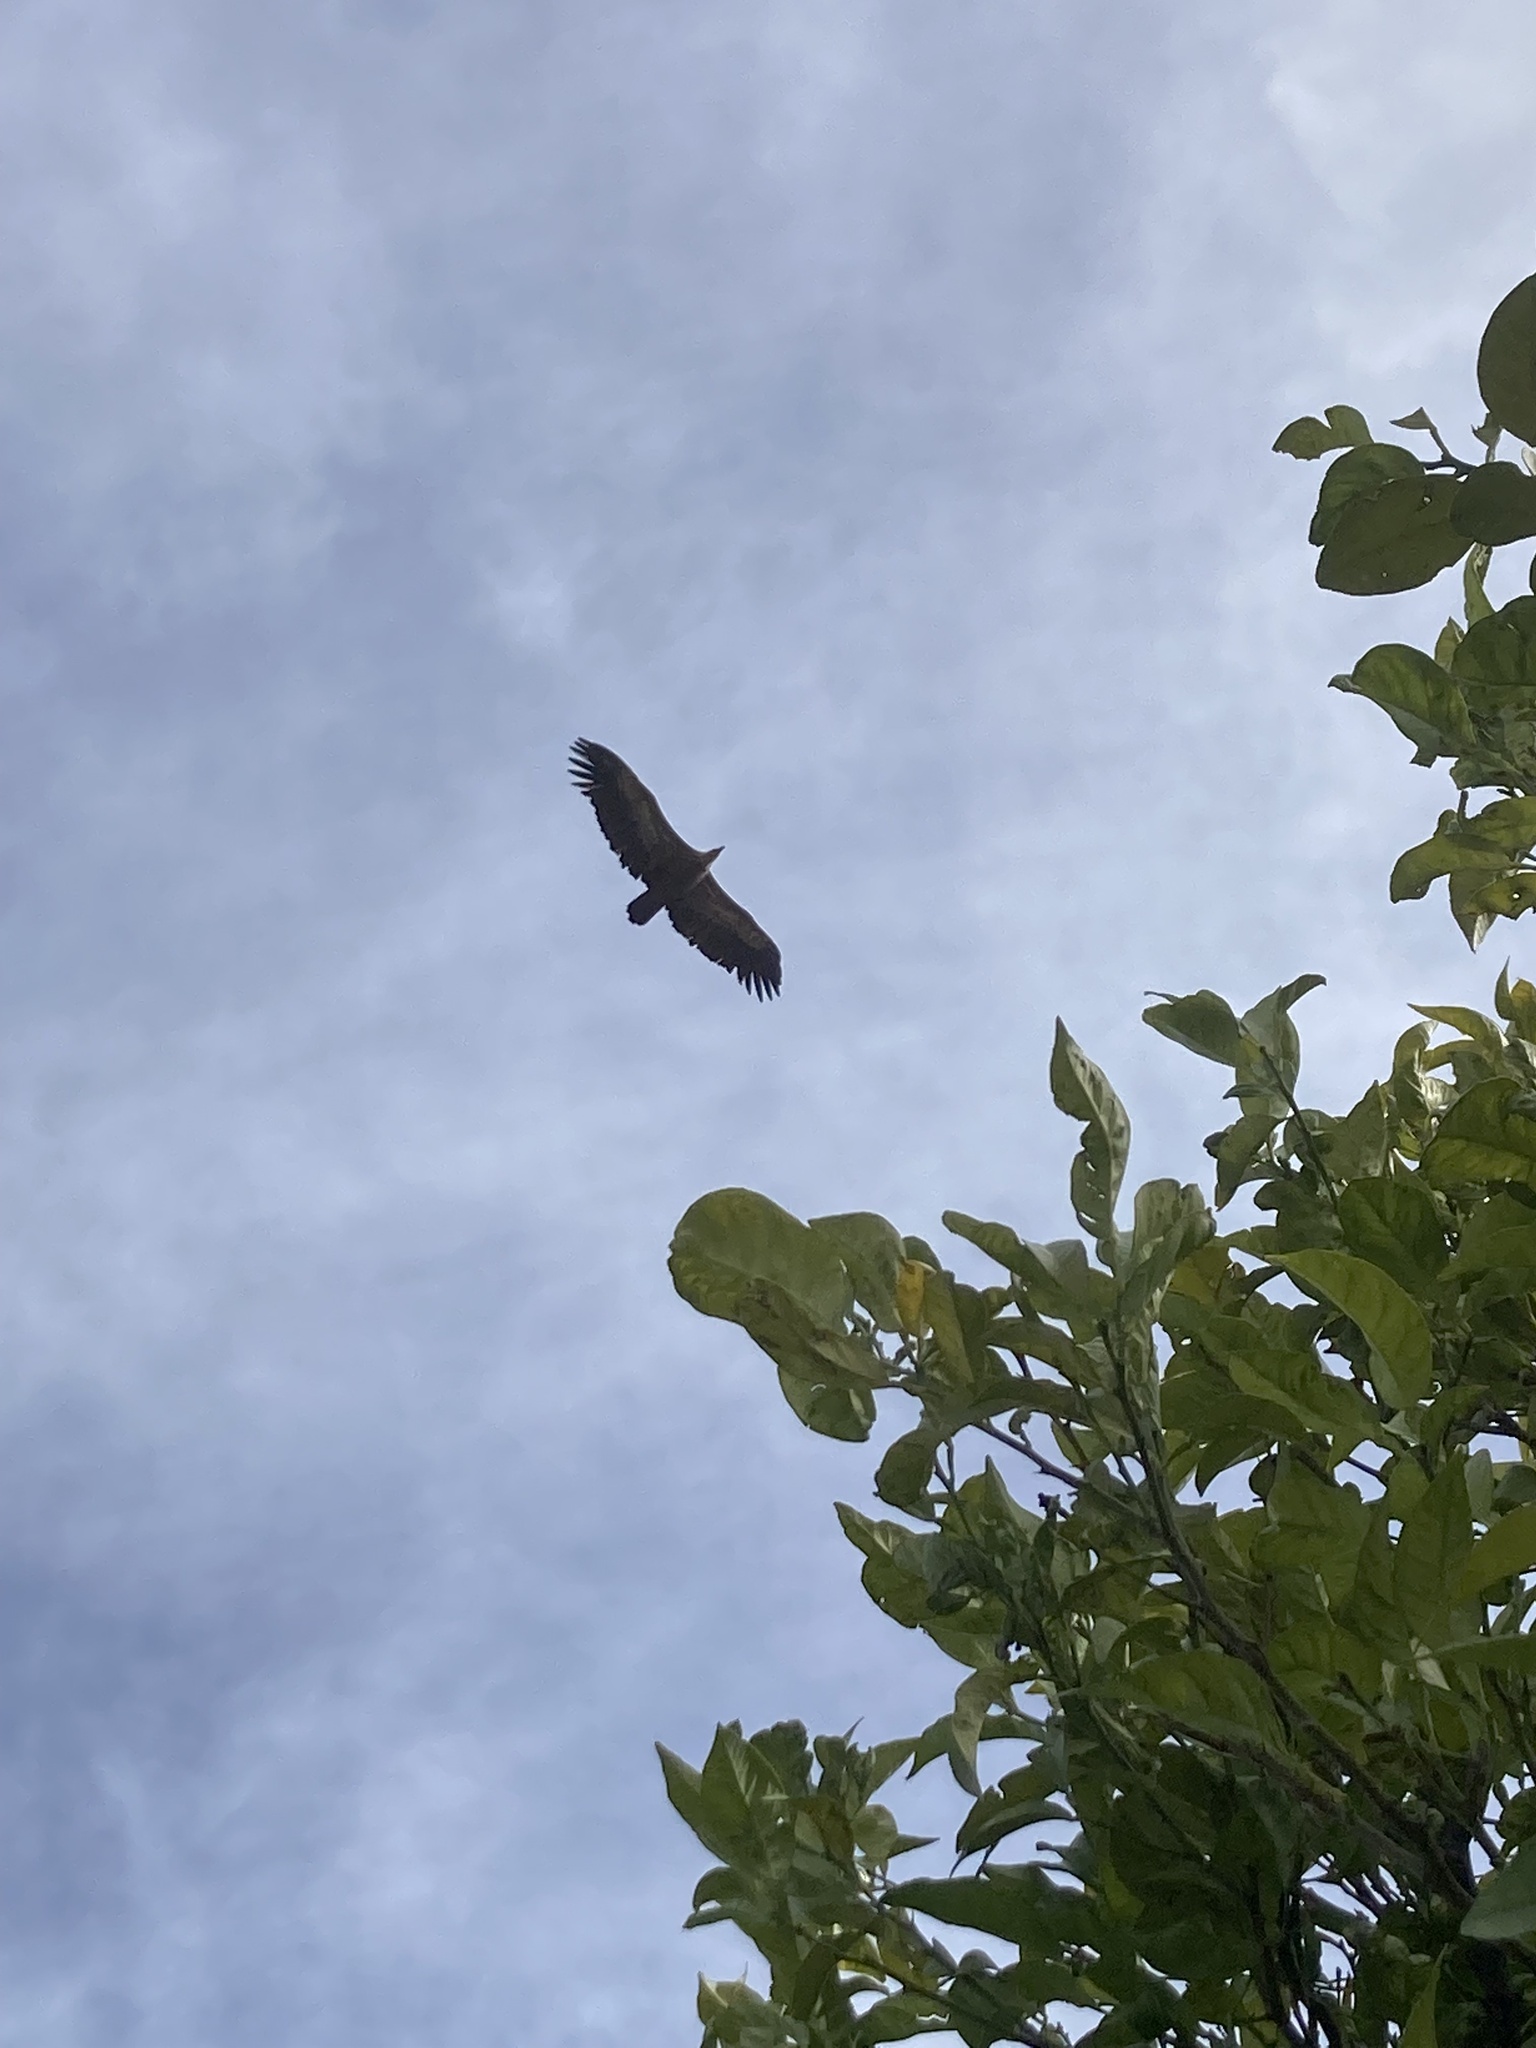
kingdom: Animalia
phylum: Chordata
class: Aves
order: Accipitriformes
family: Accipitridae
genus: Gyps
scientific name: Gyps fulvus
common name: Griffon vulture
